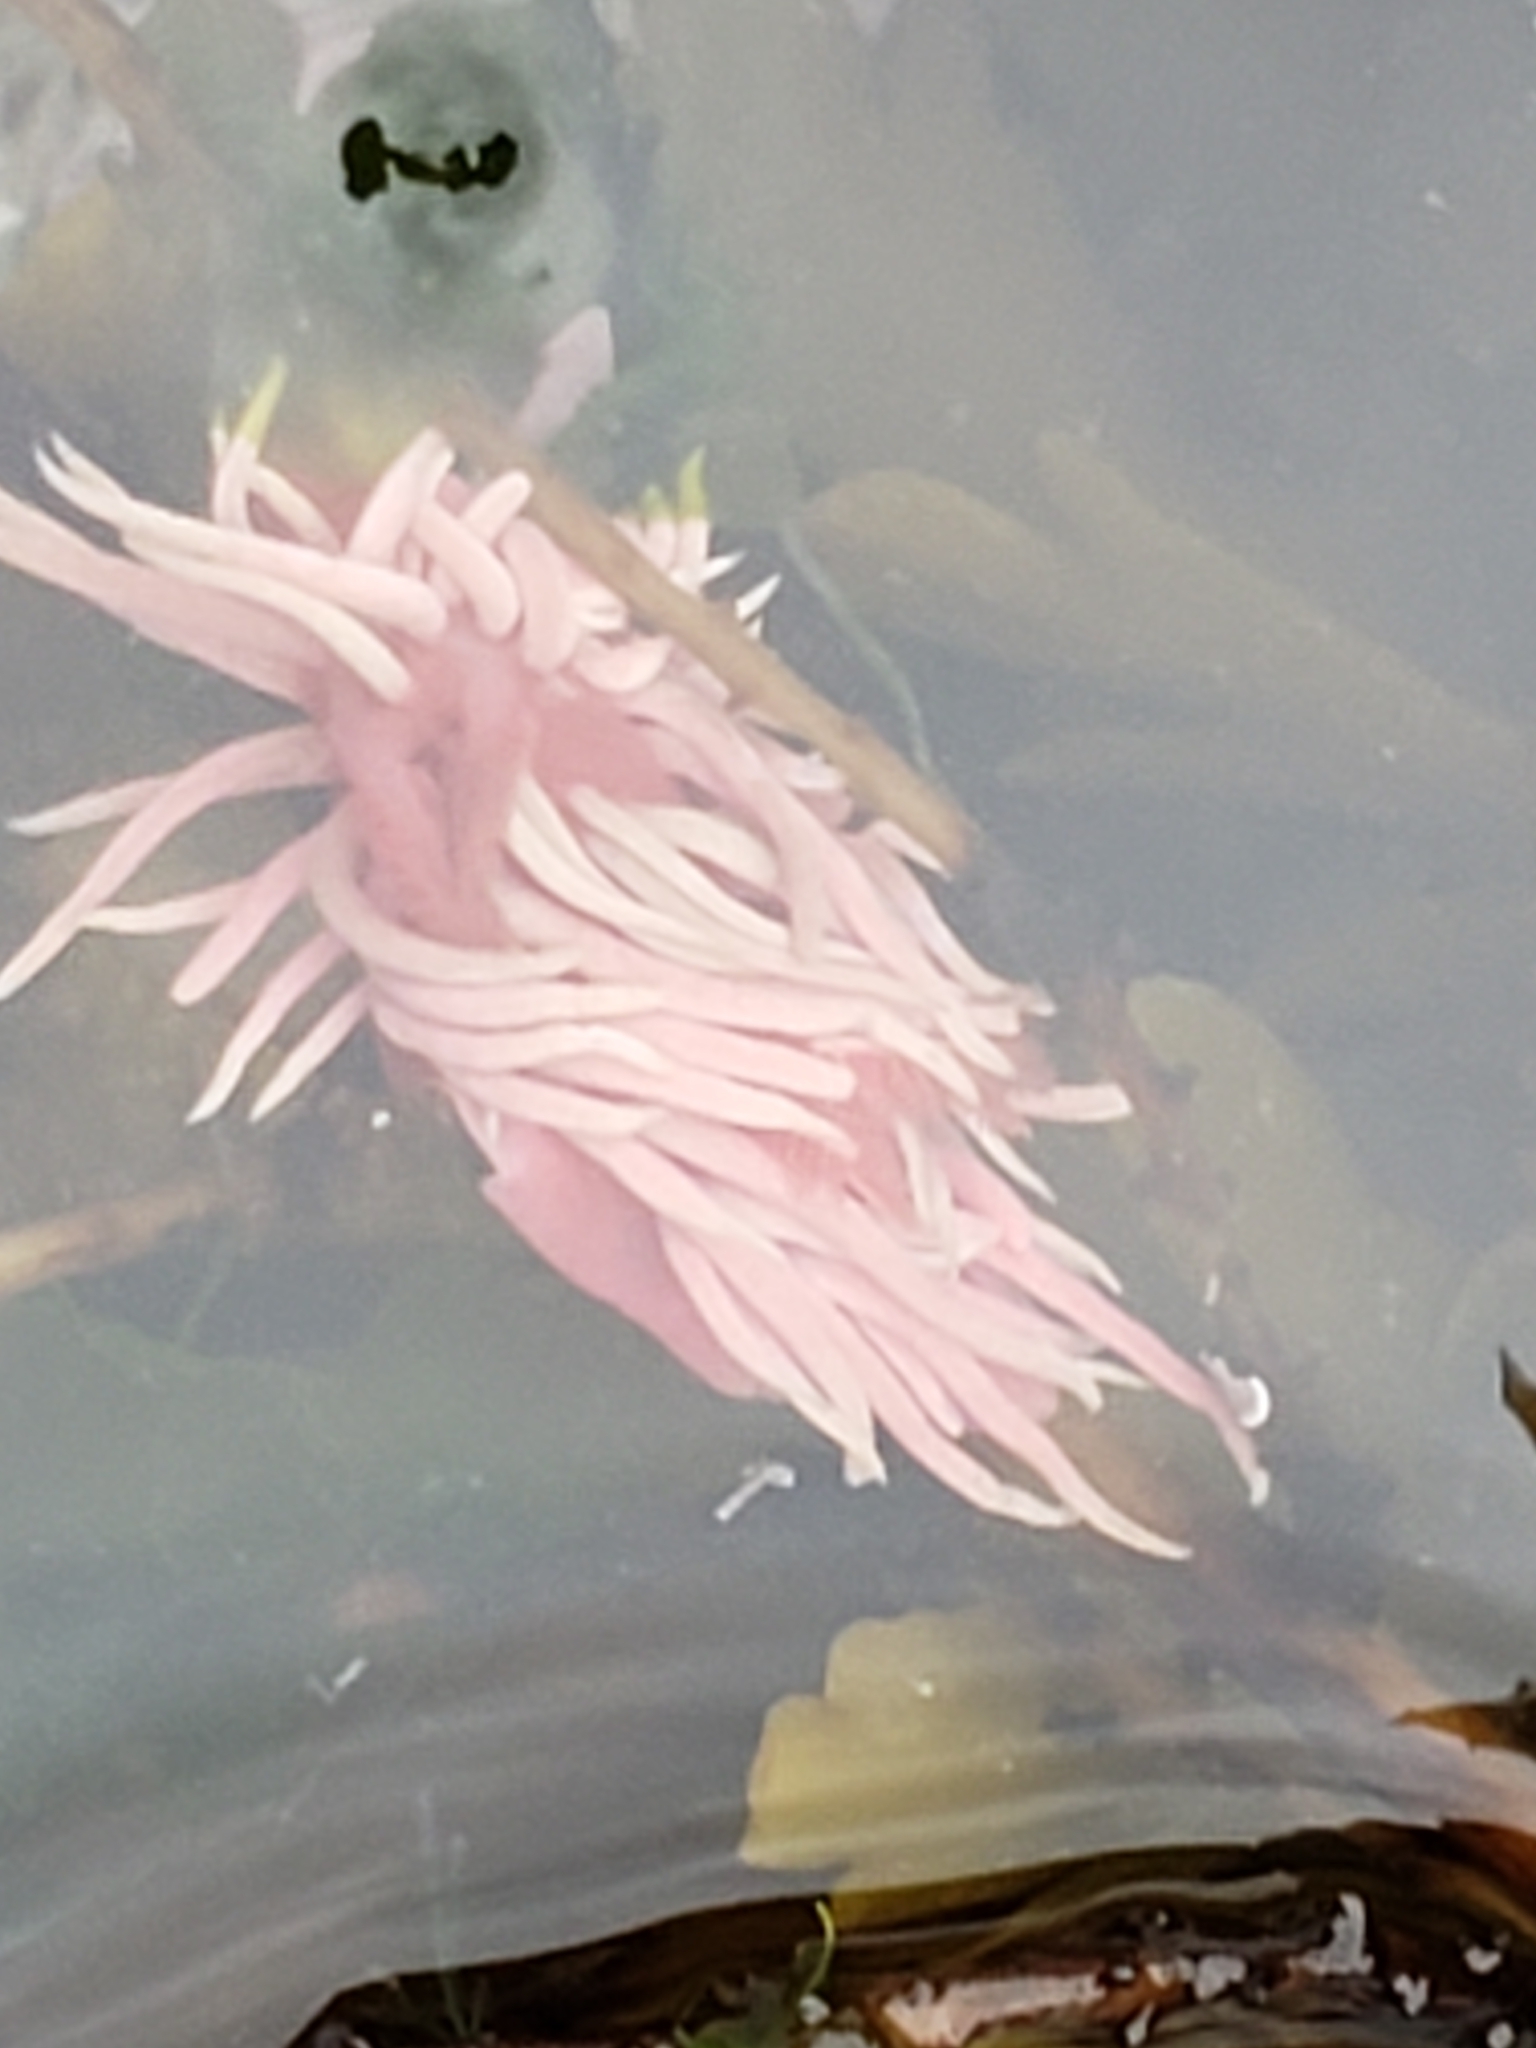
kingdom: Animalia
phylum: Mollusca
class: Gastropoda
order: Nudibranchia
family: Goniodorididae
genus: Okenia
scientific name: Okenia
